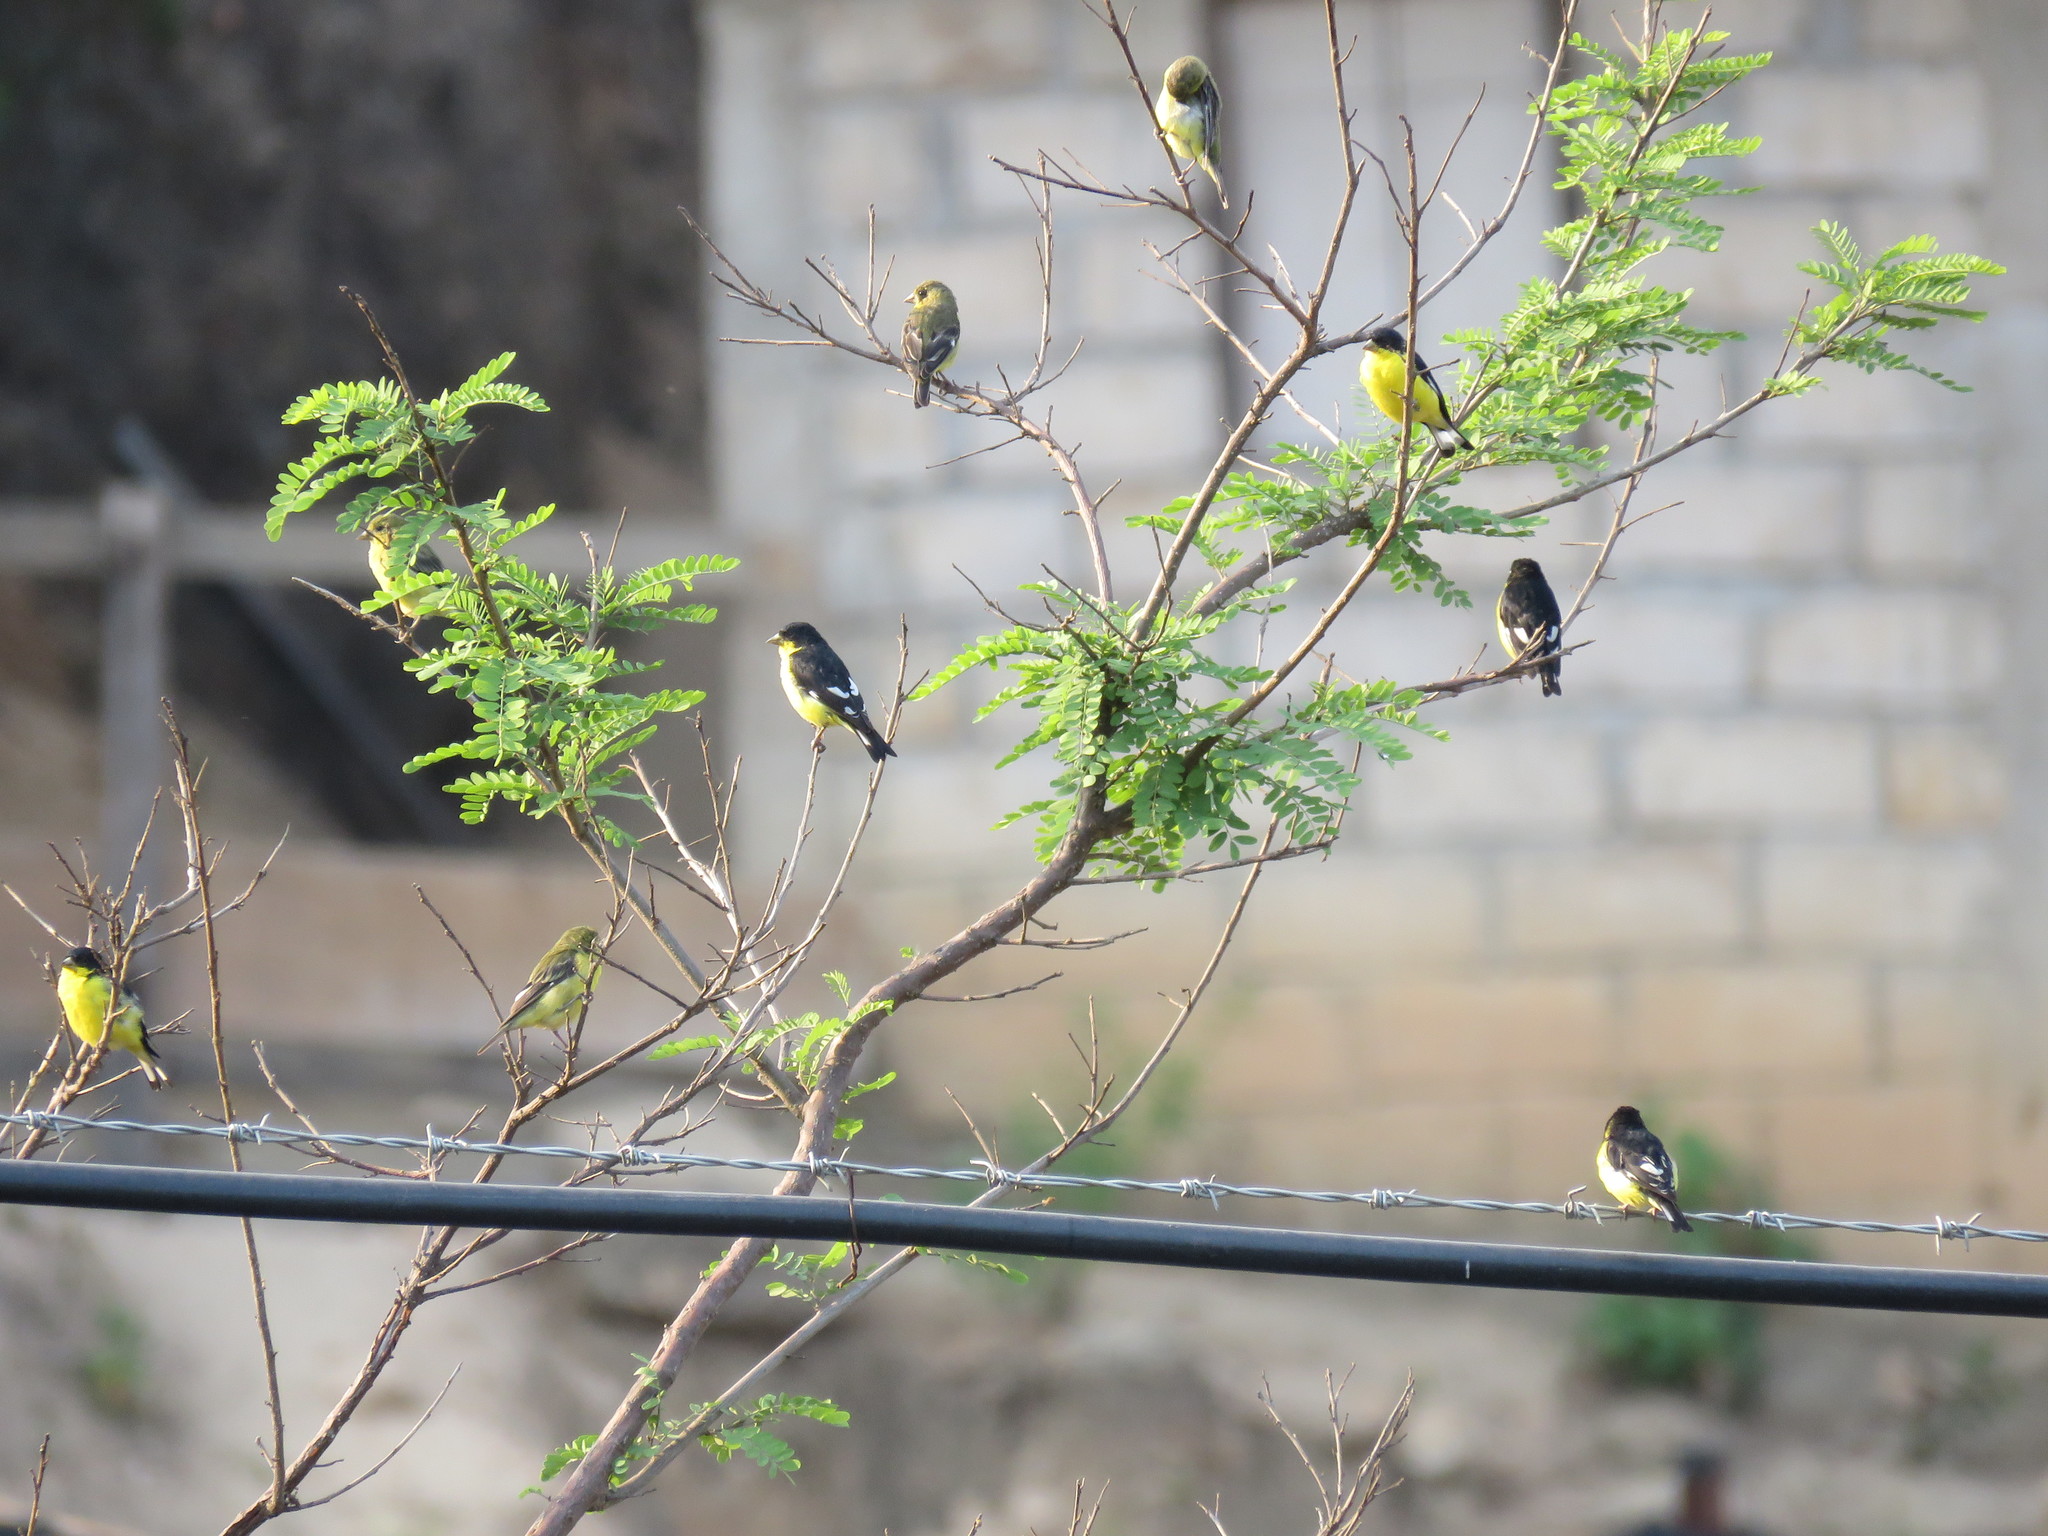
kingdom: Animalia
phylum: Chordata
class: Aves
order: Passeriformes
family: Fringillidae
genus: Spinus
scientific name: Spinus psaltria
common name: Lesser goldfinch
